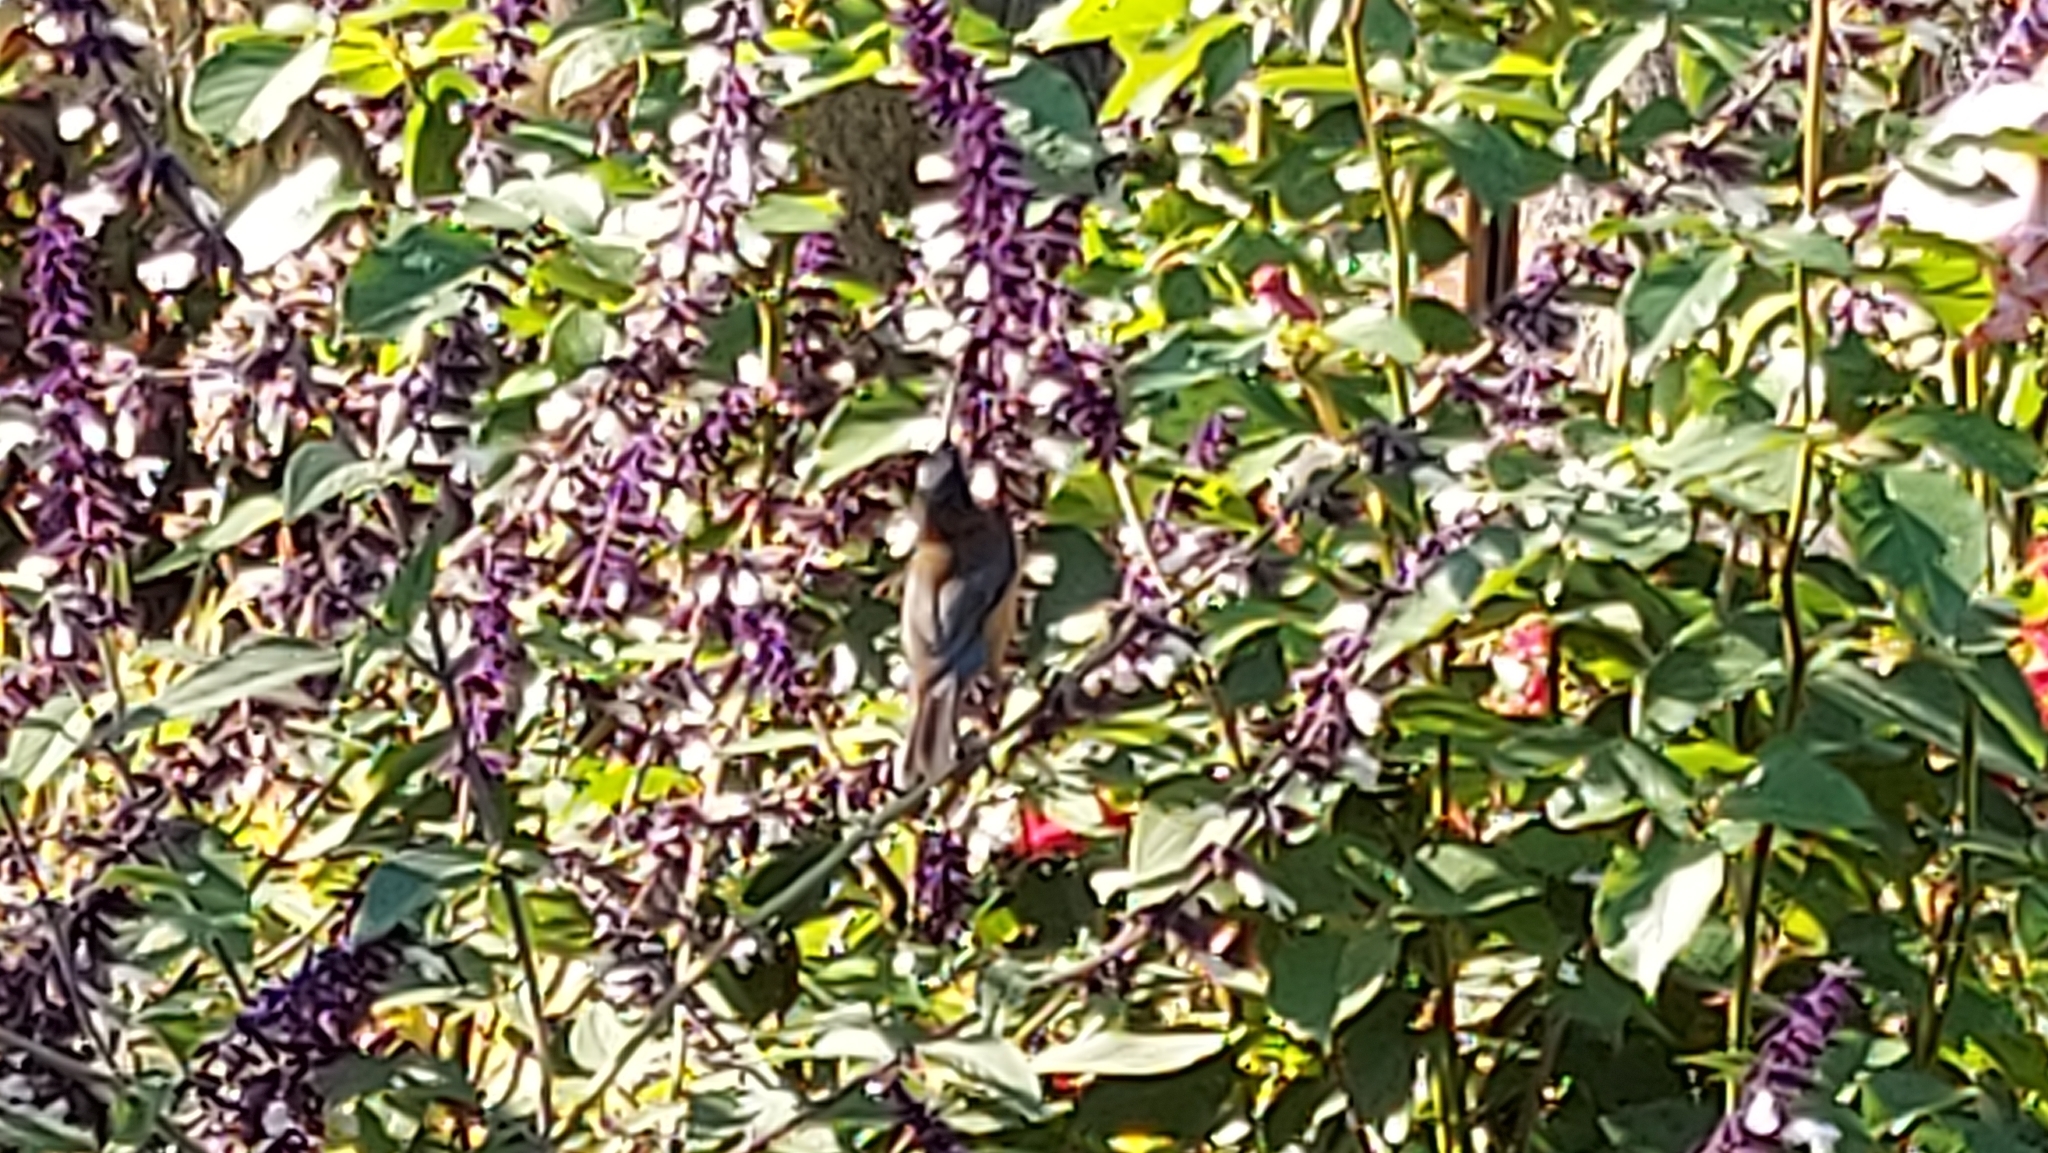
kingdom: Animalia
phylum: Chordata
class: Aves
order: Passeriformes
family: Meliphagidae
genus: Acanthorhynchus
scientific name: Acanthorhynchus tenuirostris
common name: Eastern spinebill
